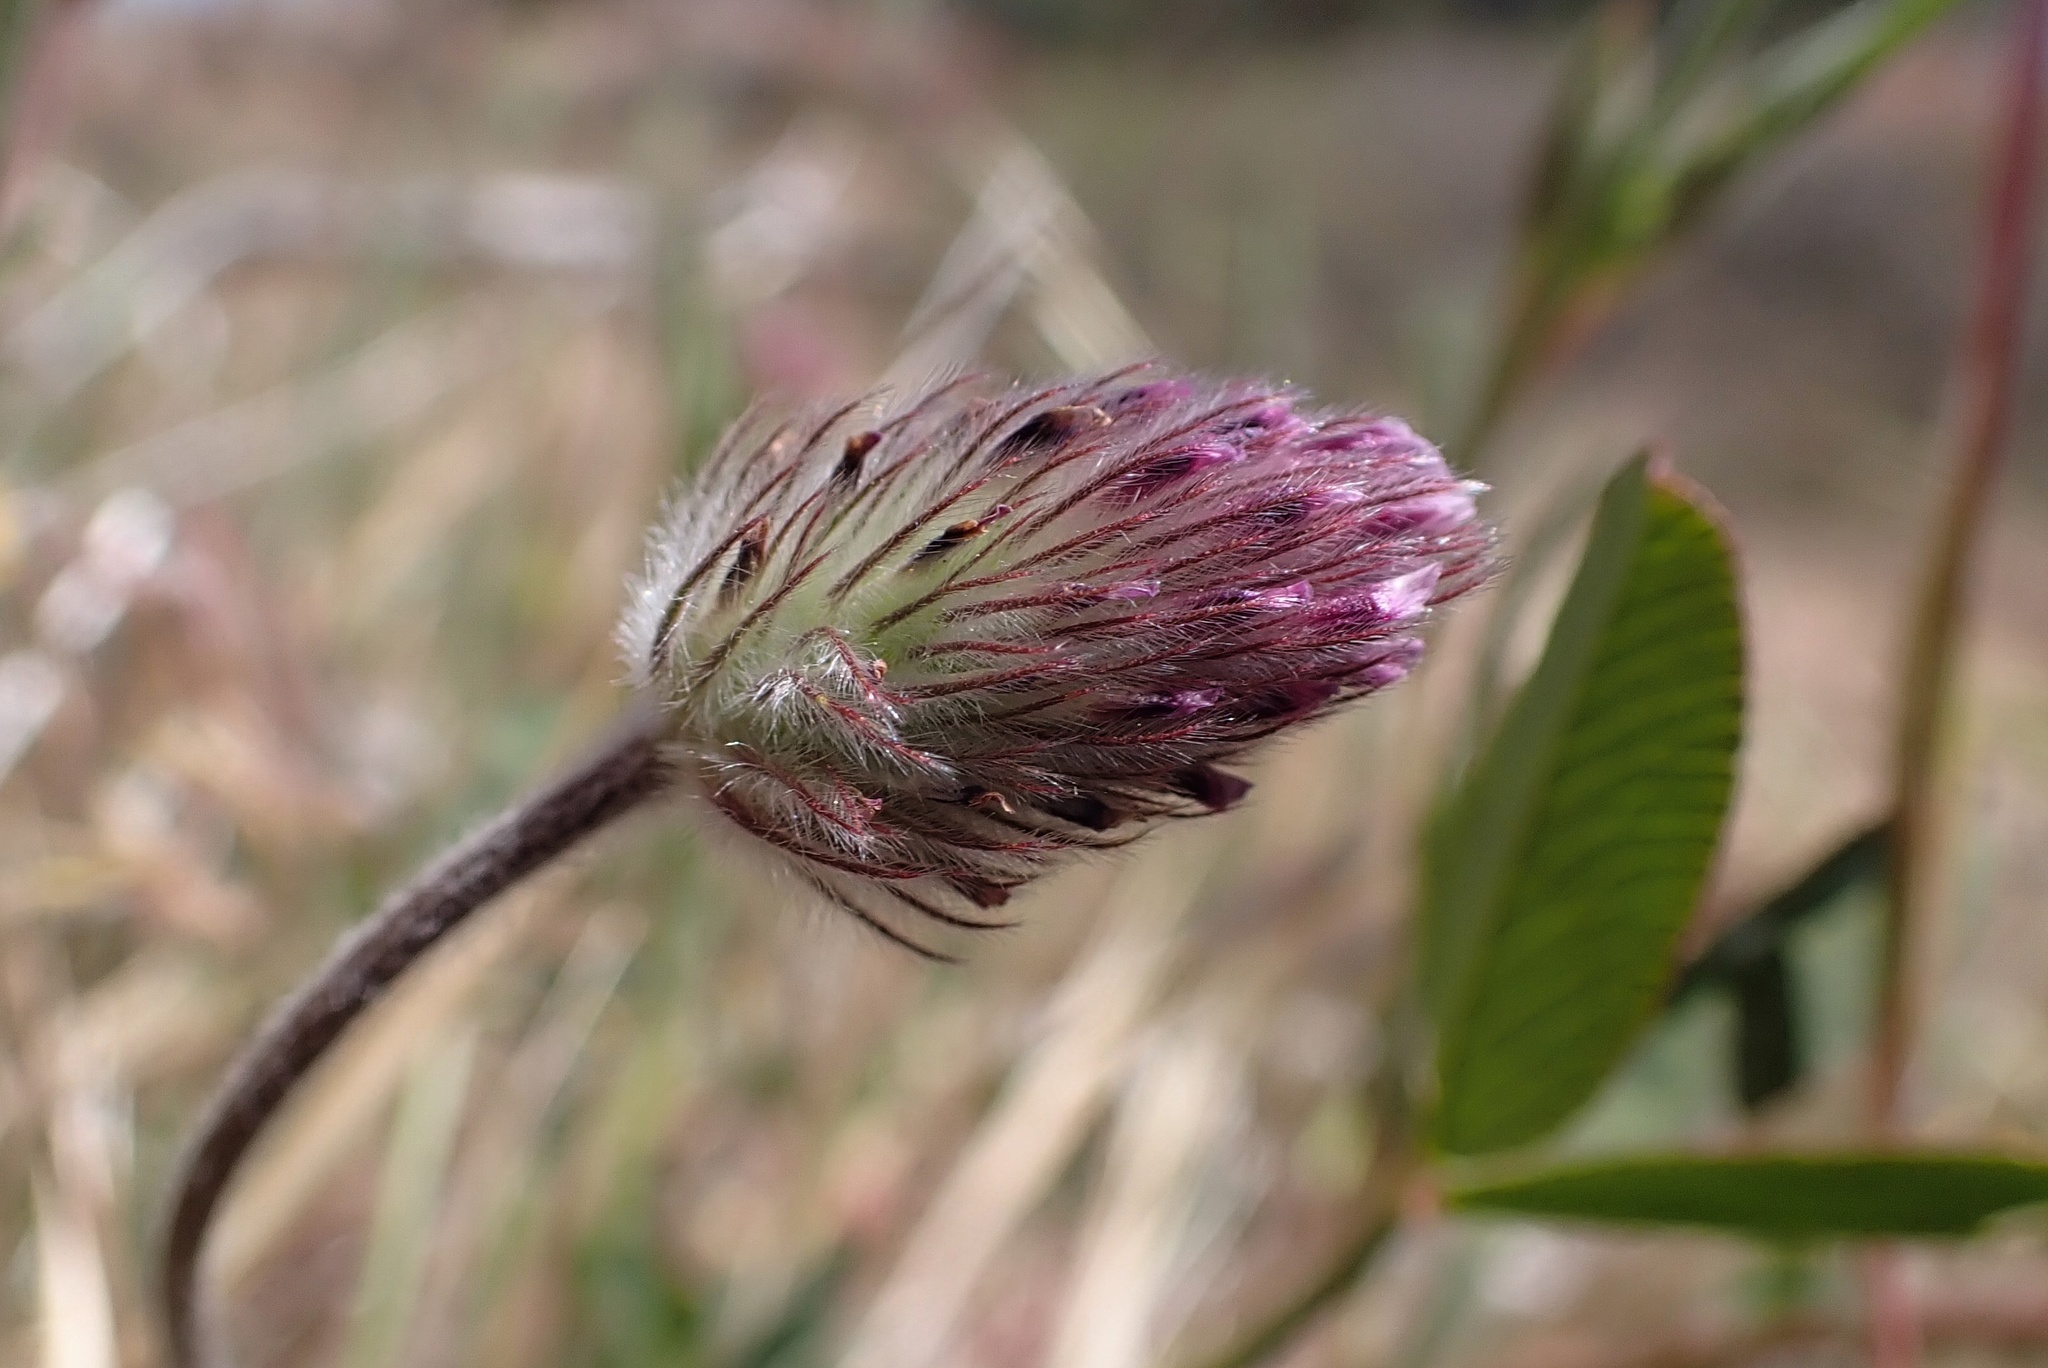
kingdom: Plantae
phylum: Tracheophyta
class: Magnoliopsida
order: Fabales
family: Fabaceae
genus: Trifolium
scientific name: Trifolium albopurpureum
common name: Rancheria clover
